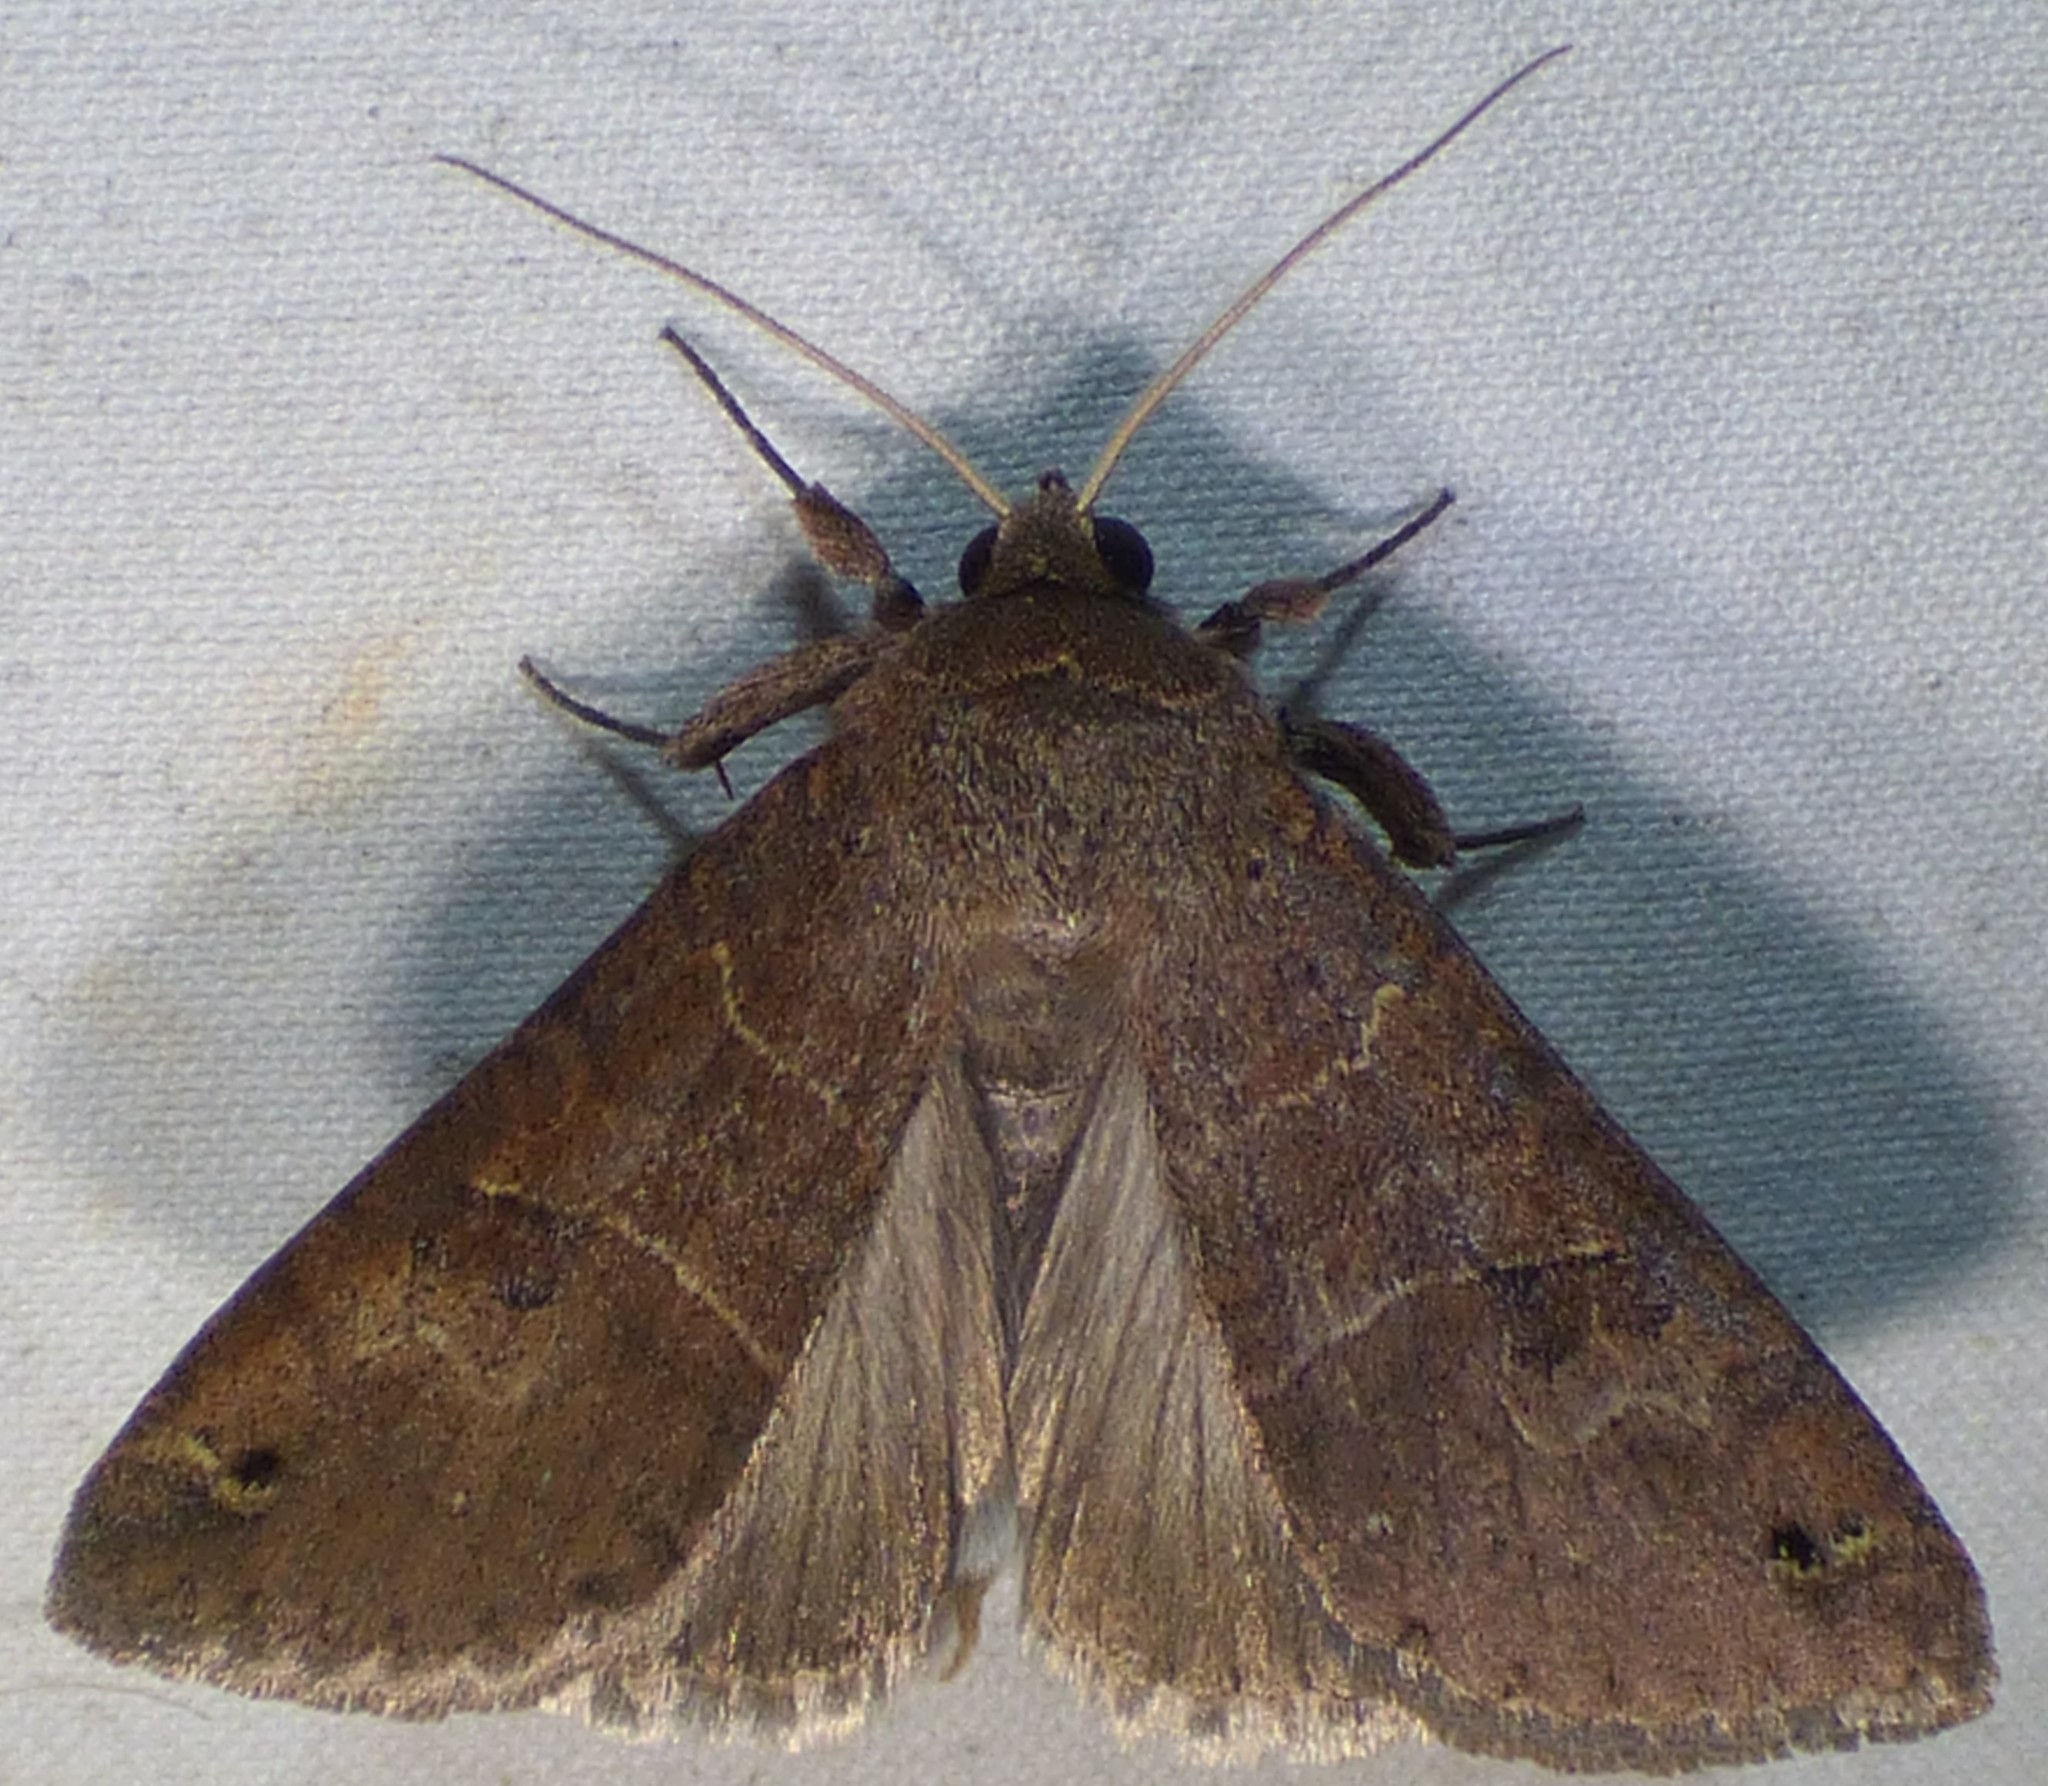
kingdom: Animalia
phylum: Arthropoda
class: Insecta
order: Lepidoptera
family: Erebidae
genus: Cissusa
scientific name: Cissusa spadix
